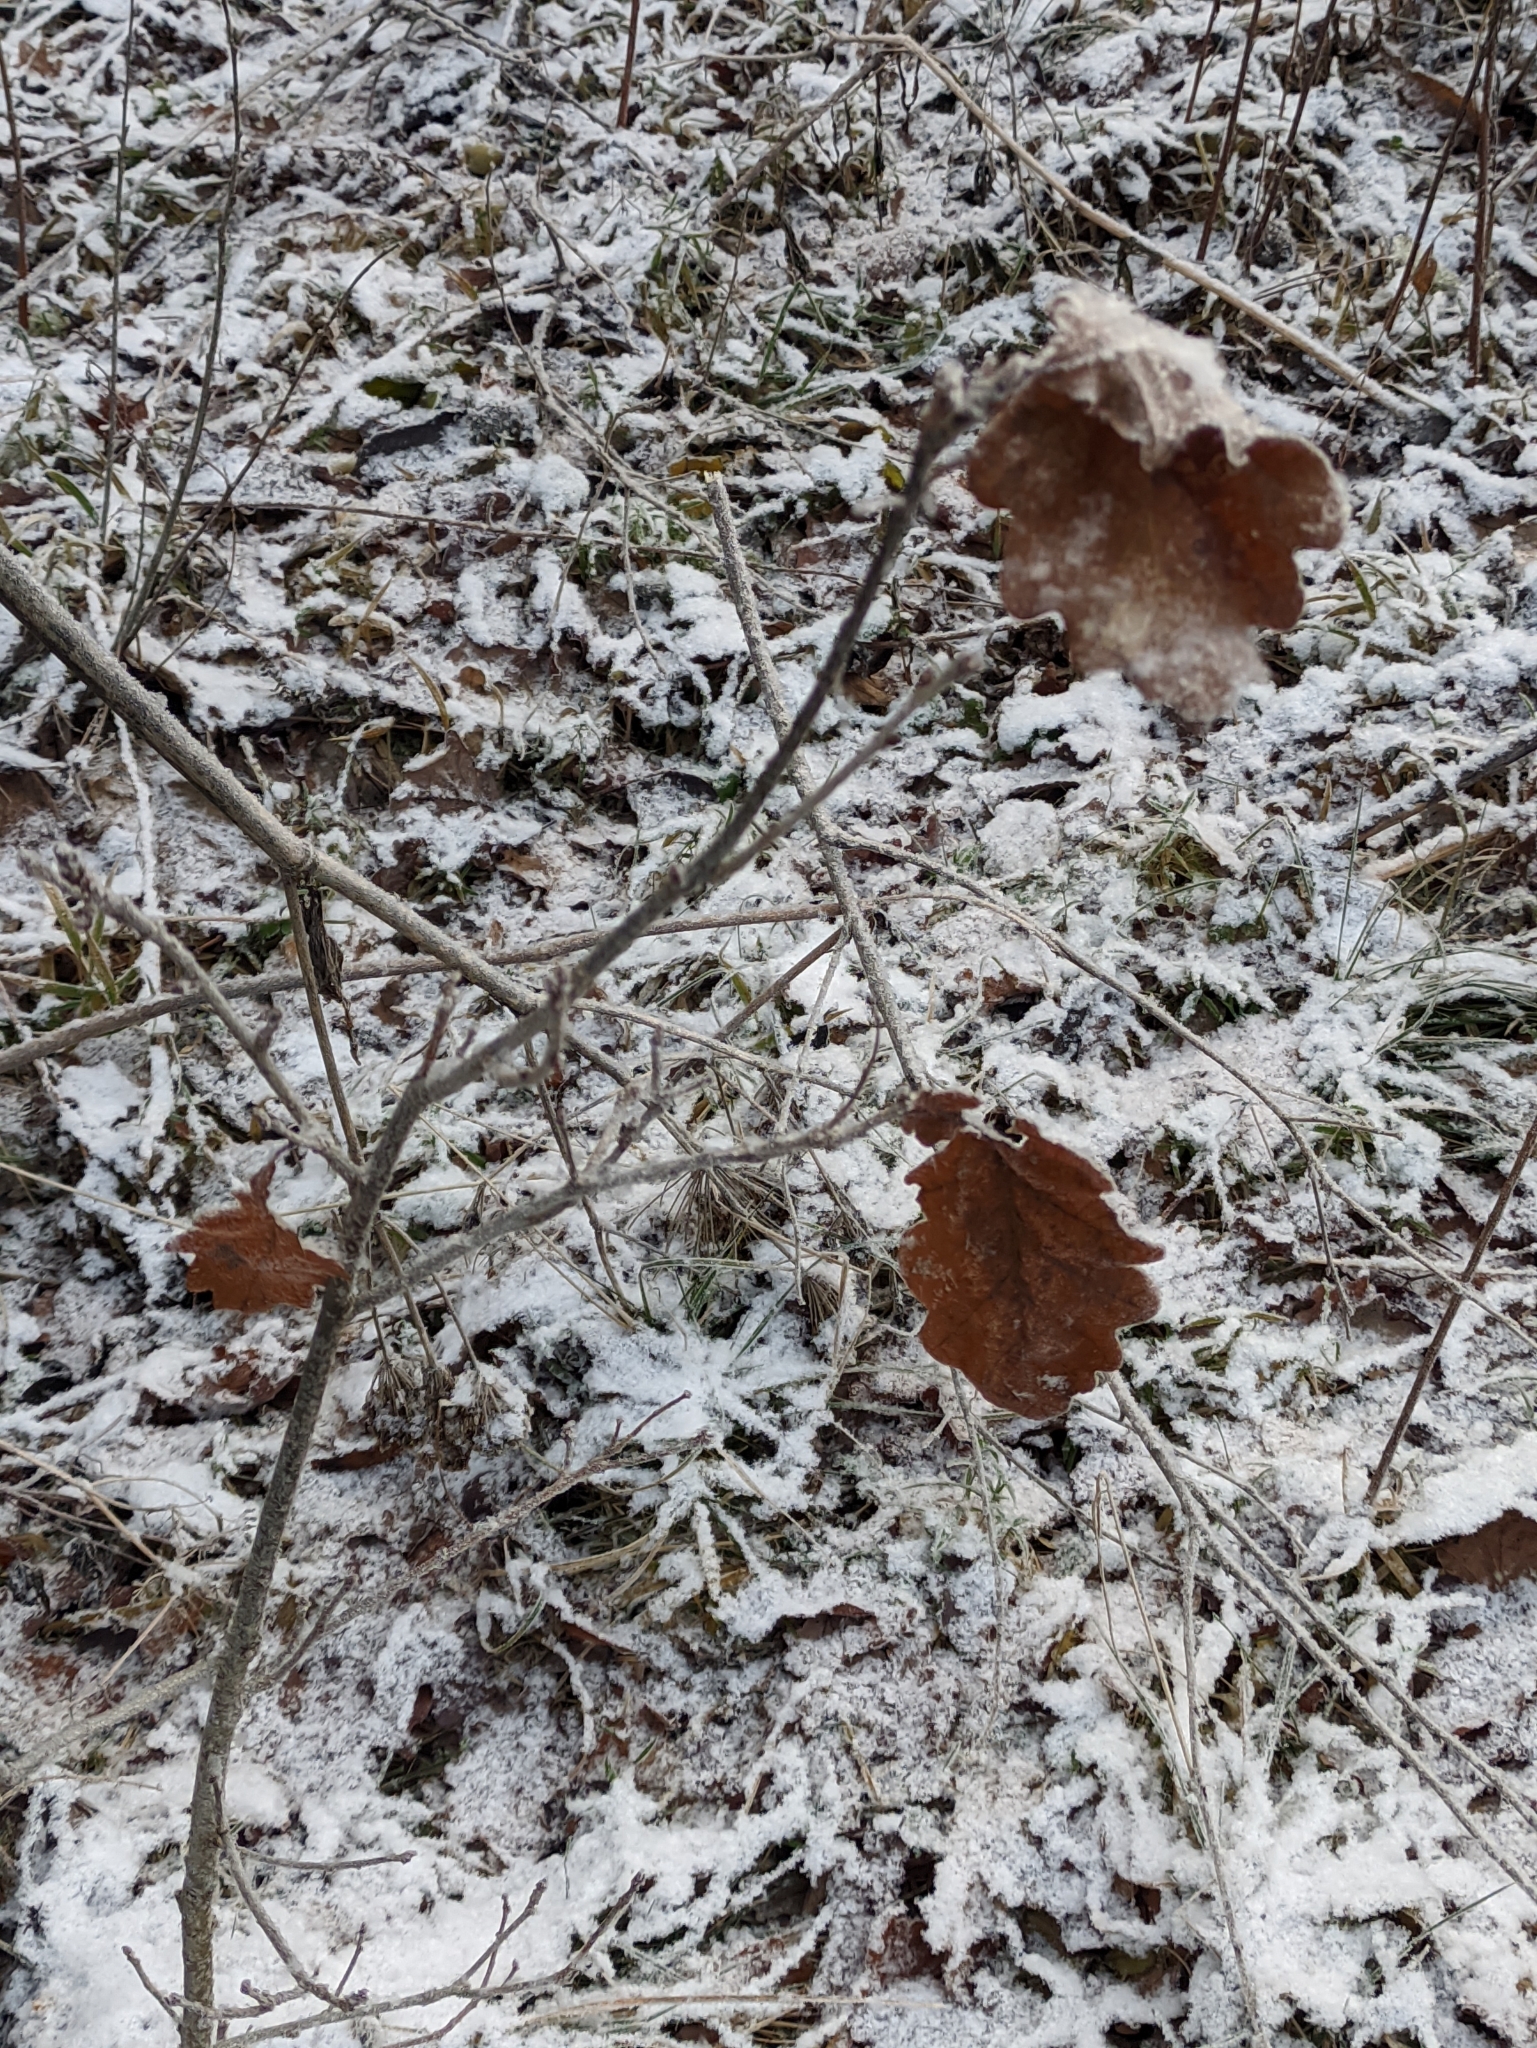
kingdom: Plantae
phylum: Tracheophyta
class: Magnoliopsida
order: Fagales
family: Fagaceae
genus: Quercus
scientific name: Quercus robur
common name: Pedunculate oak
